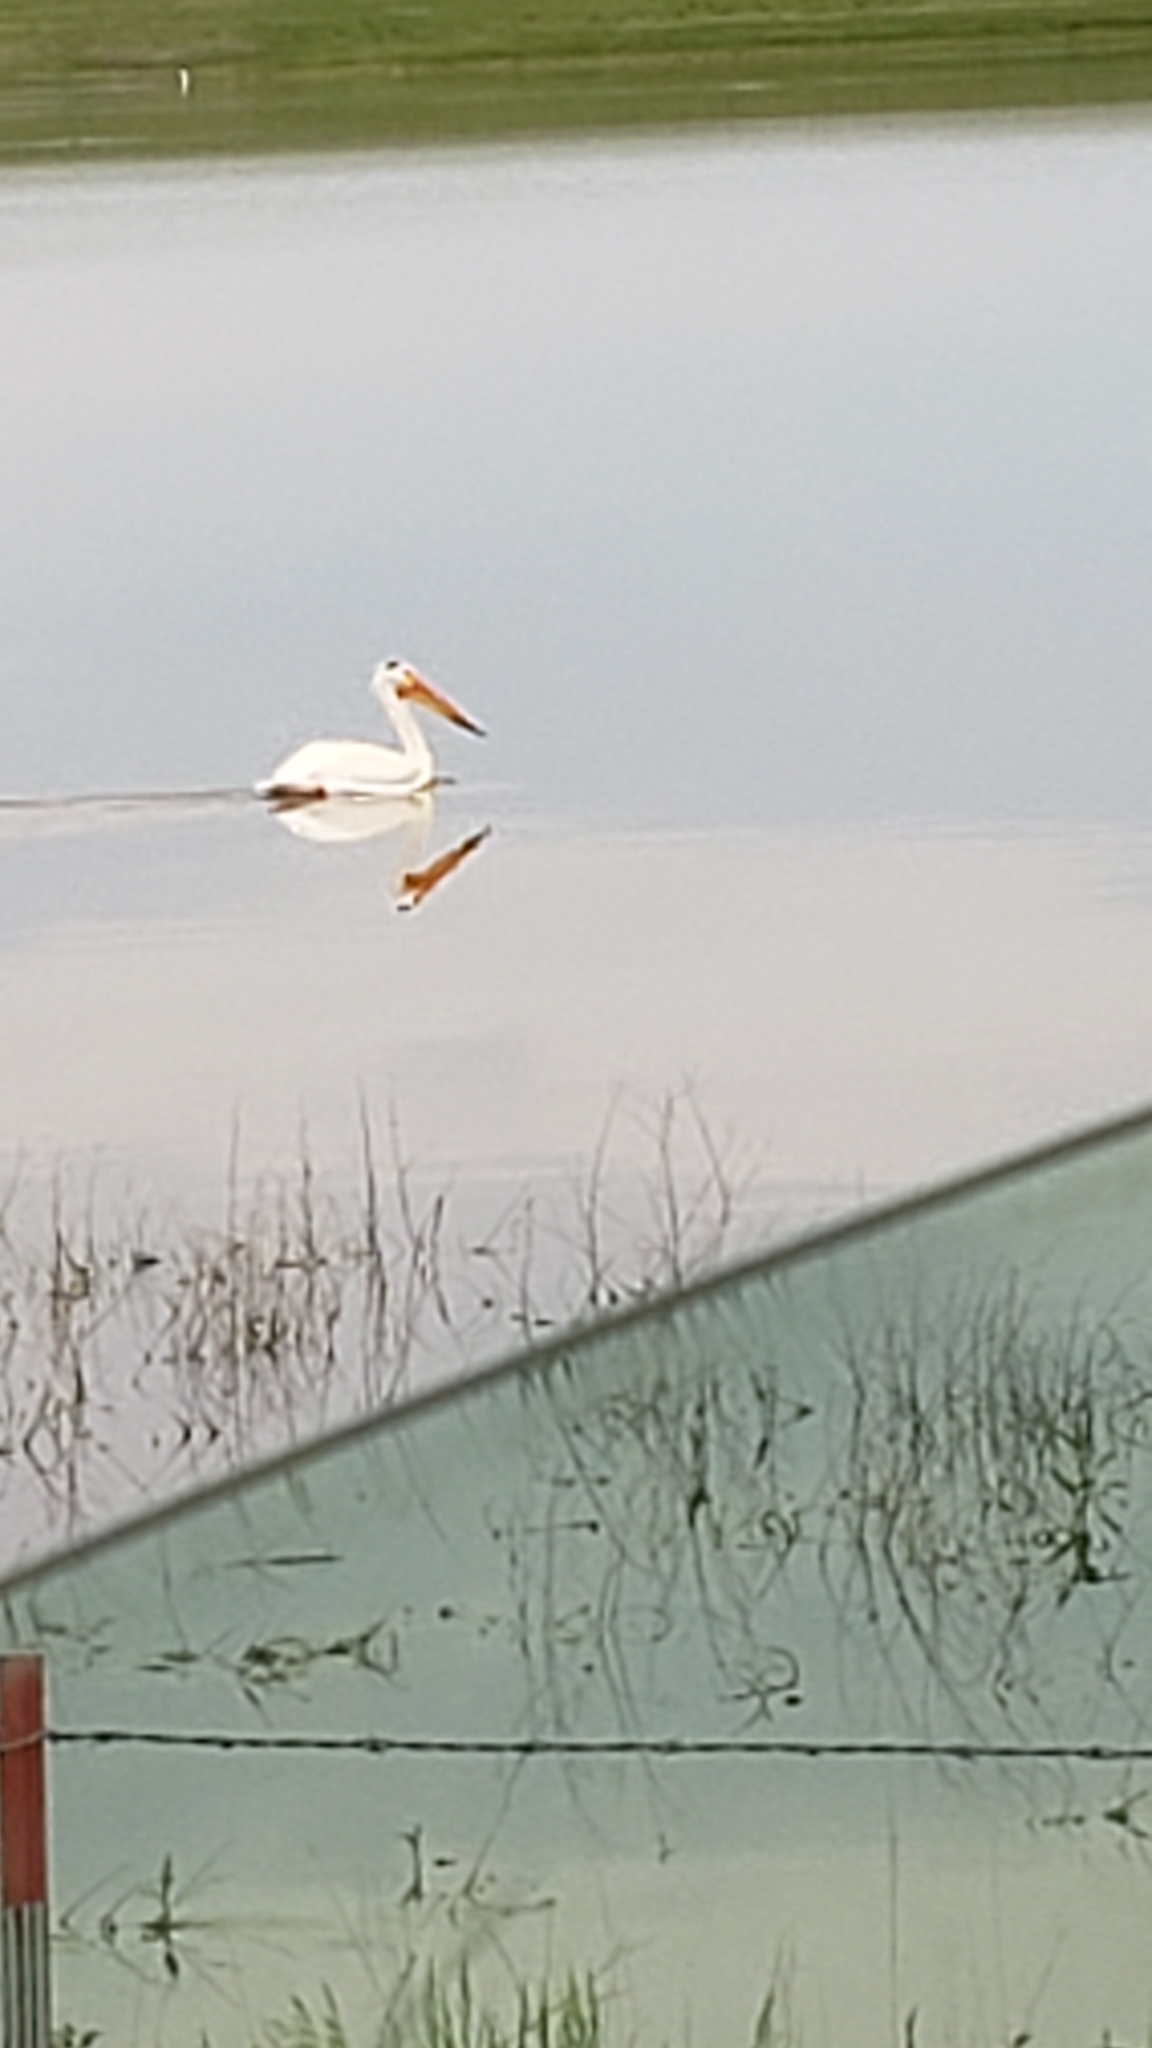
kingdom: Animalia
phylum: Chordata
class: Aves
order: Pelecaniformes
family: Pelecanidae
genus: Pelecanus
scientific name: Pelecanus erythrorhynchos
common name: American white pelican
